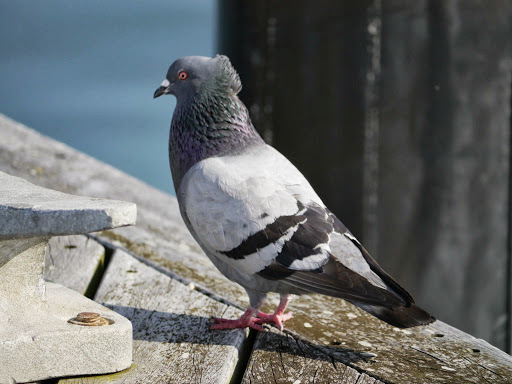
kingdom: Animalia
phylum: Chordata
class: Aves
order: Columbiformes
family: Columbidae
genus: Columba
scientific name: Columba livia
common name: Rock pigeon
